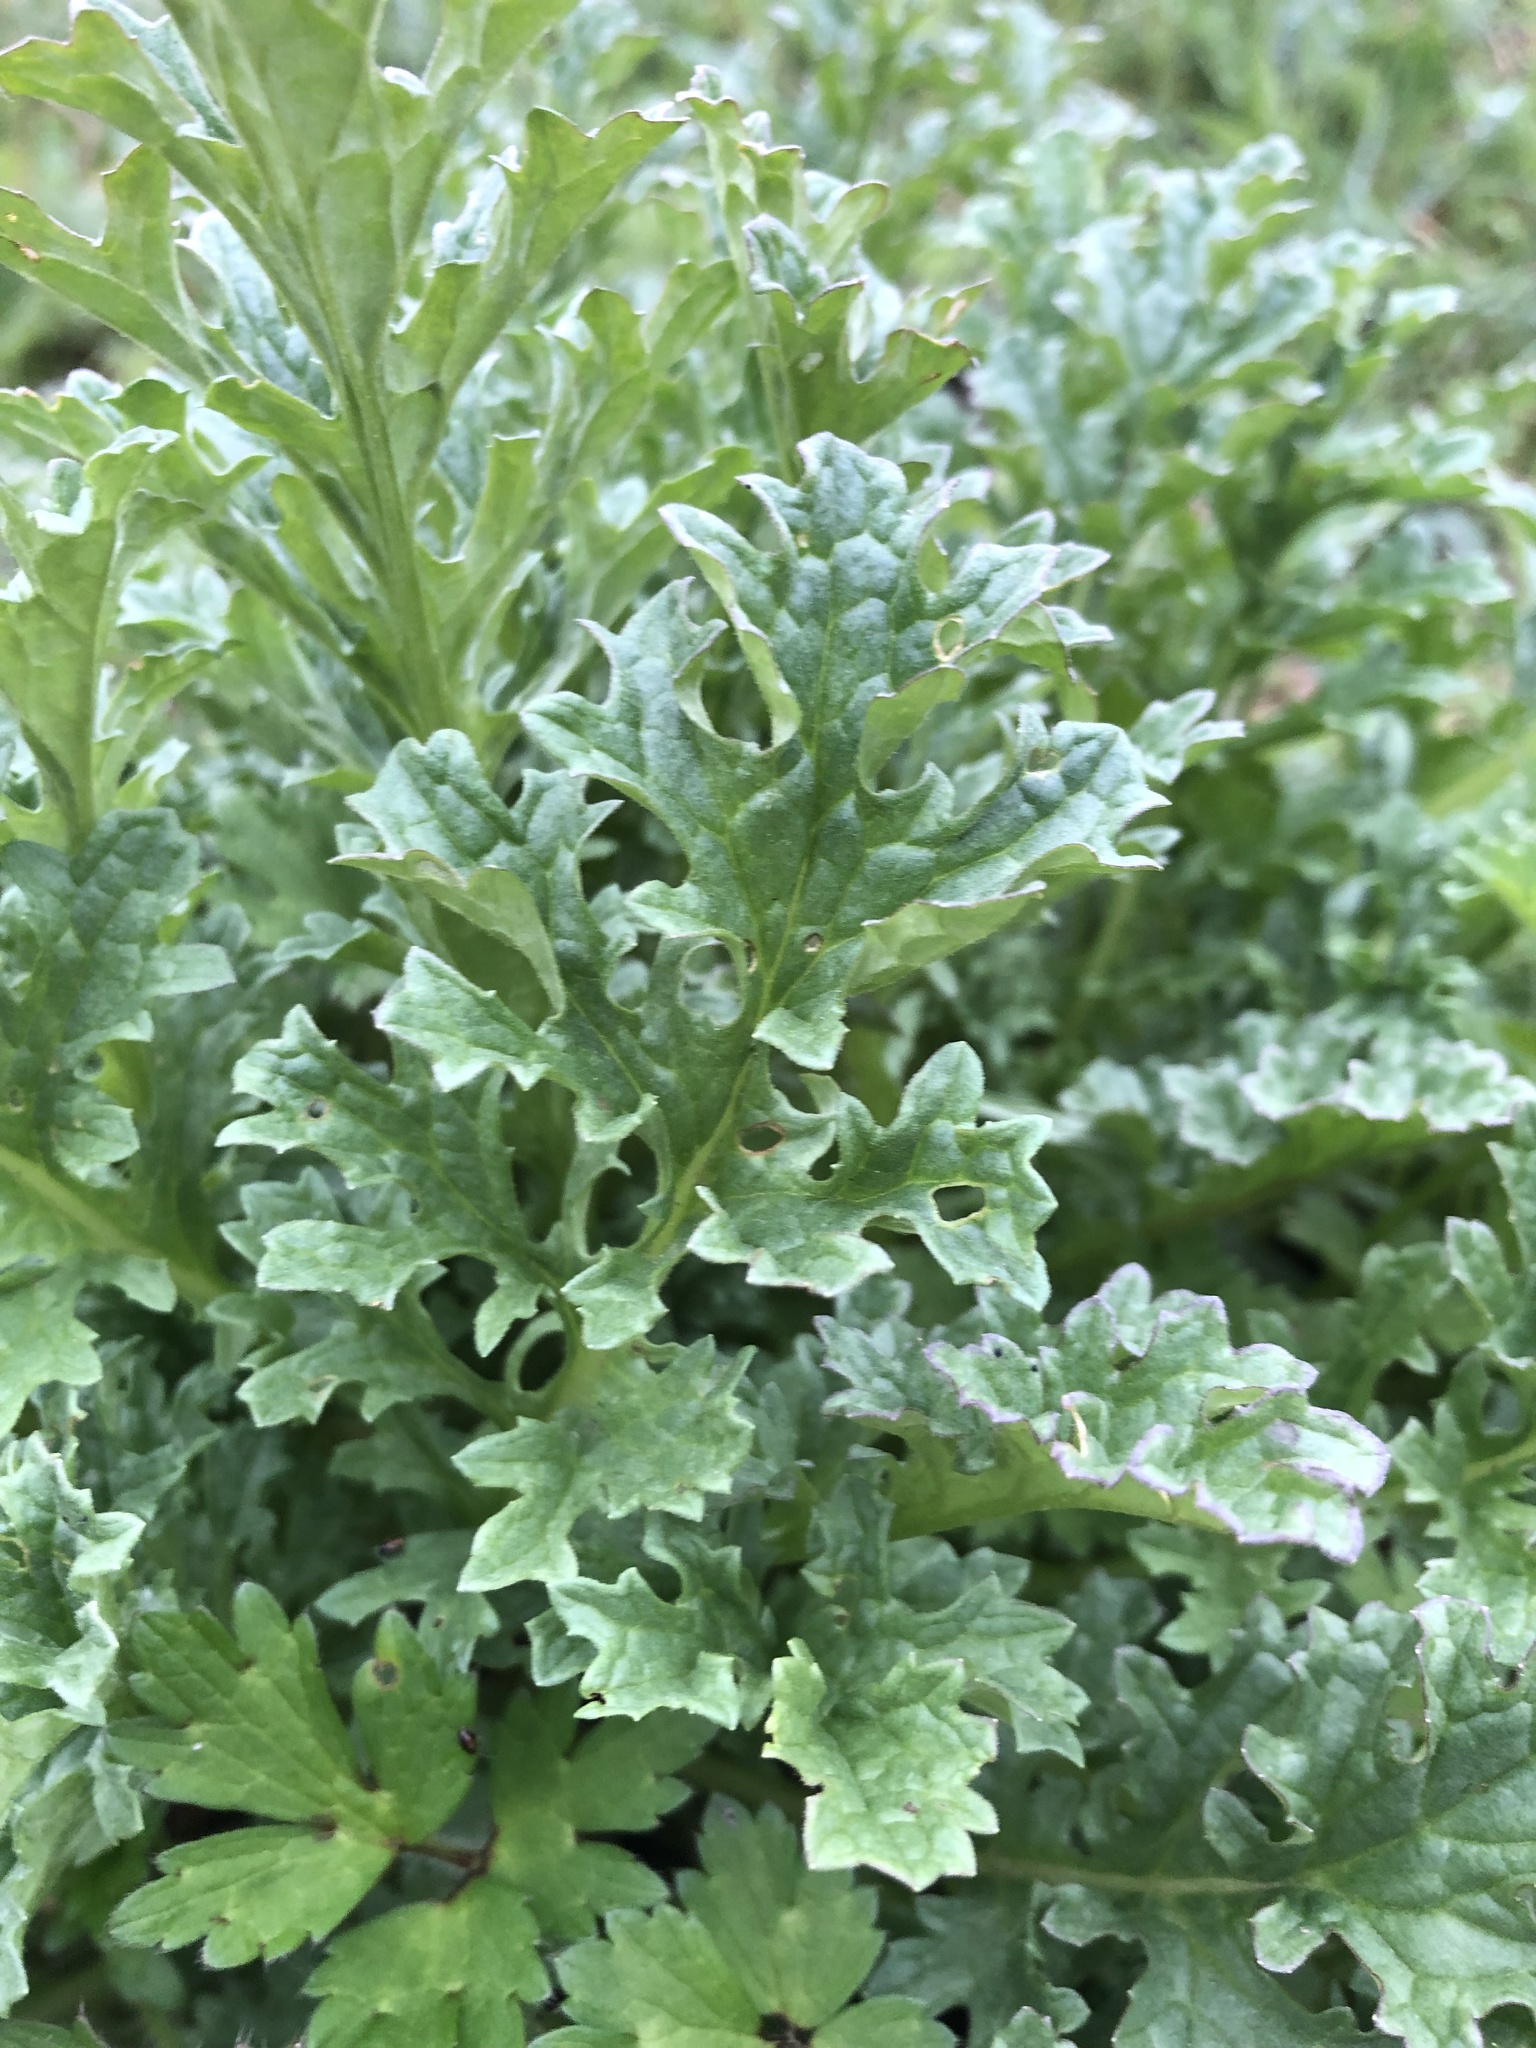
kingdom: Plantae
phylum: Tracheophyta
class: Magnoliopsida
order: Asterales
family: Asteraceae
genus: Jacobaea
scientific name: Jacobaea vulgaris
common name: Stinking willie
